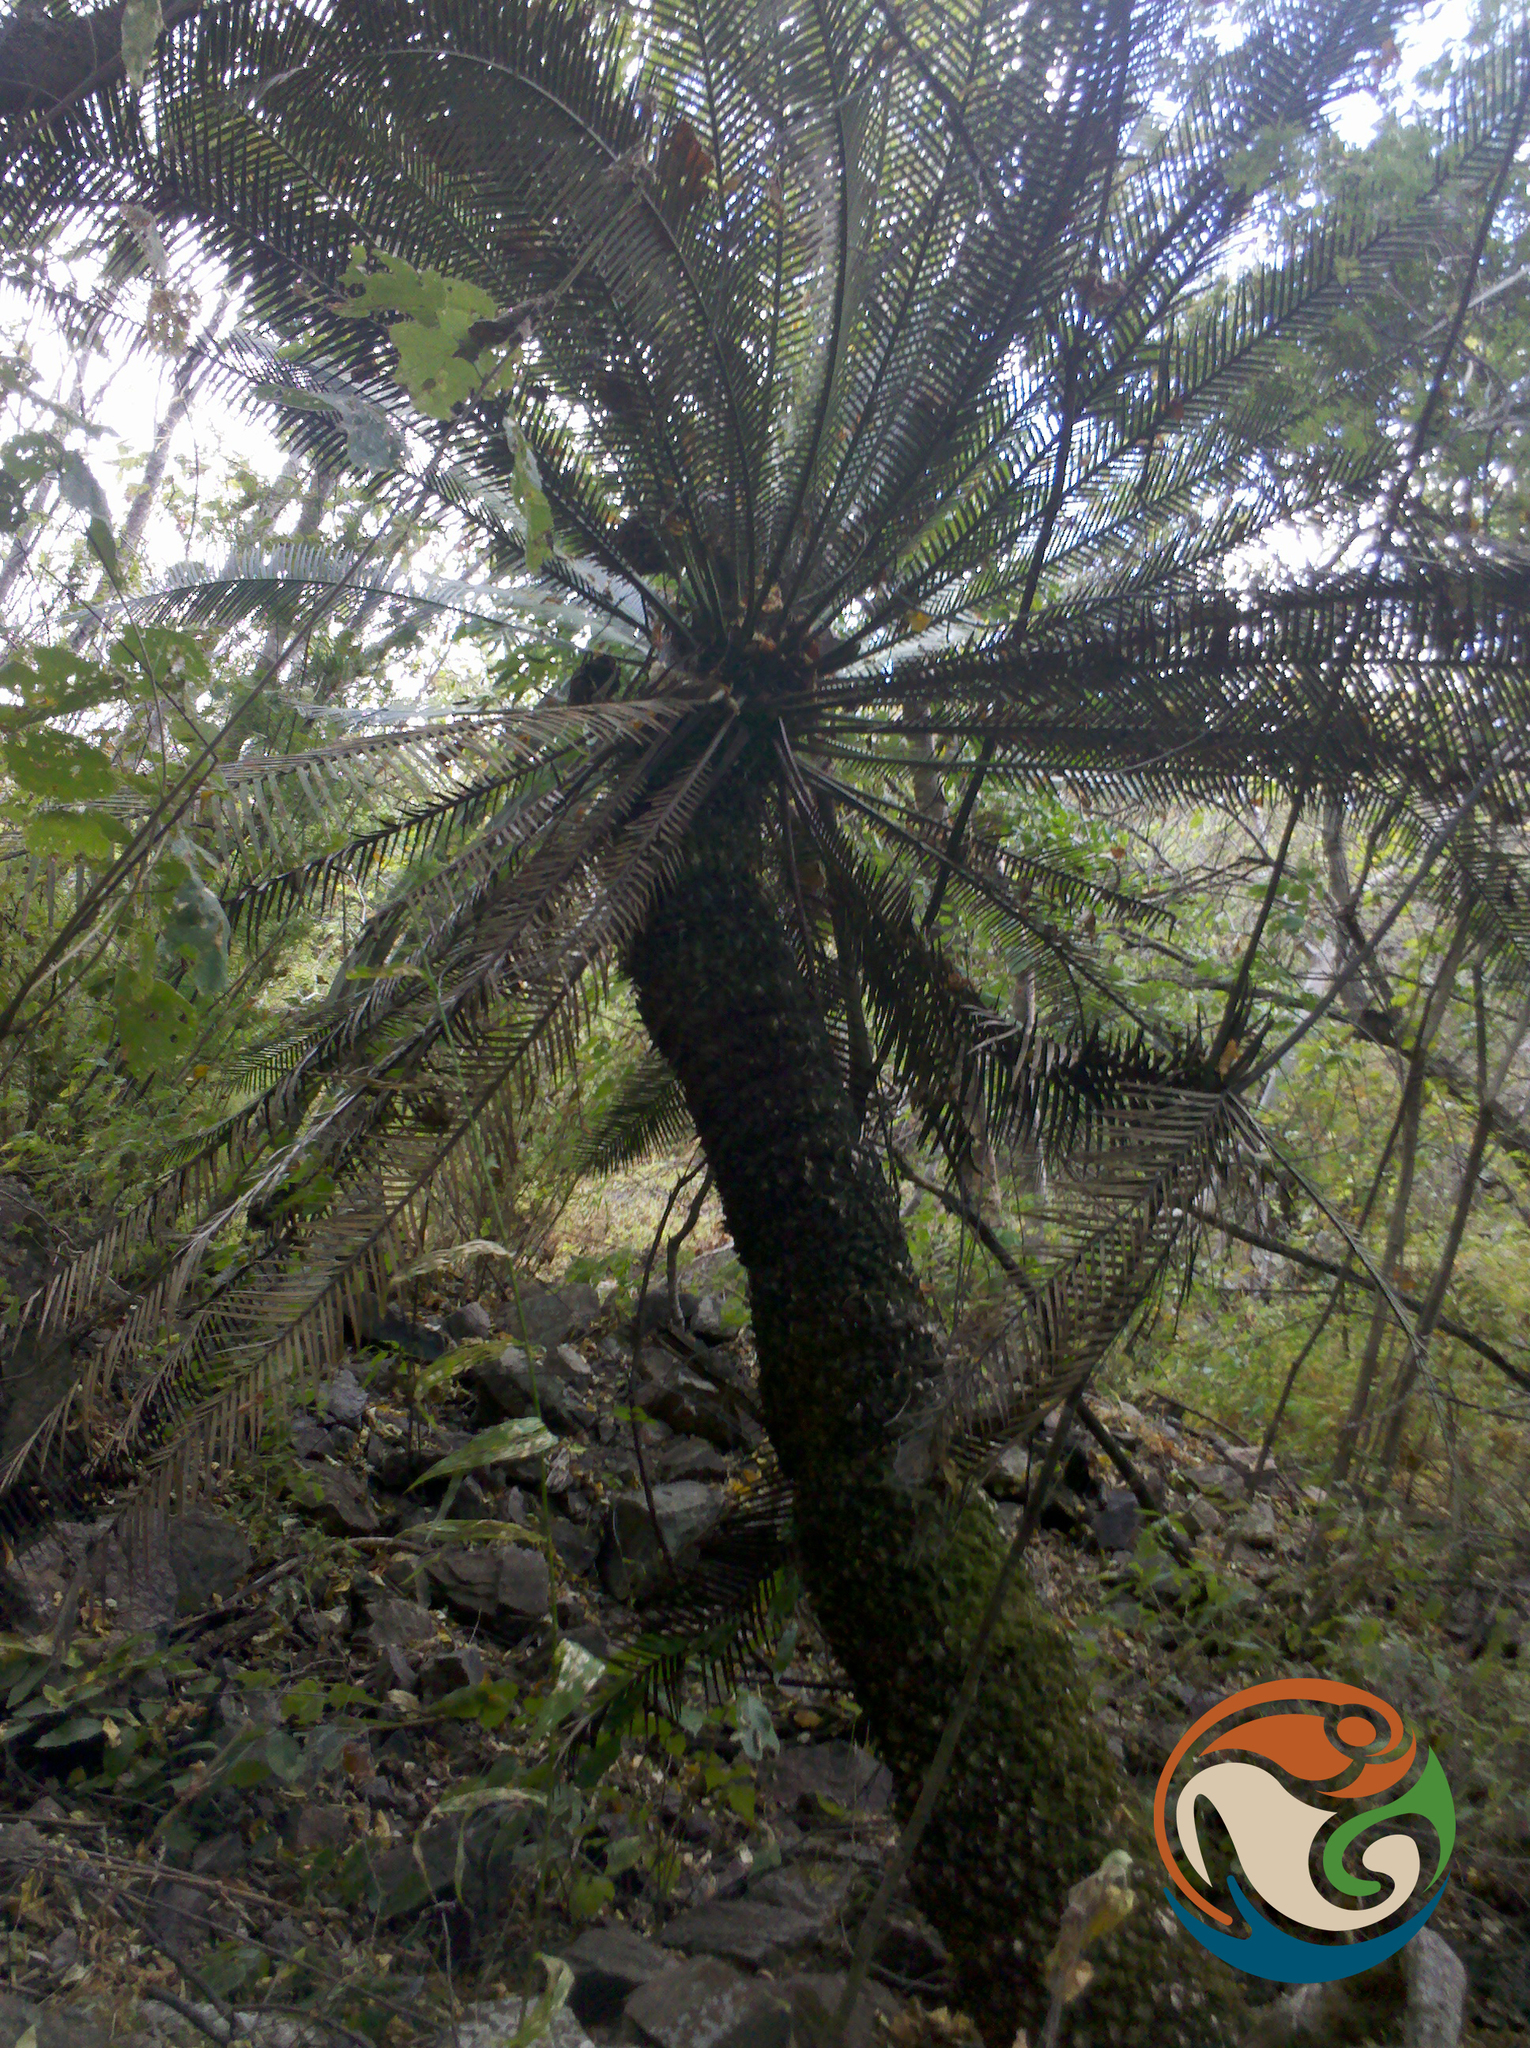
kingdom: Plantae
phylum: Tracheophyta
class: Cycadopsida
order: Cycadales
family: Zamiaceae
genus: Dioon
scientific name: Dioon purpusii
